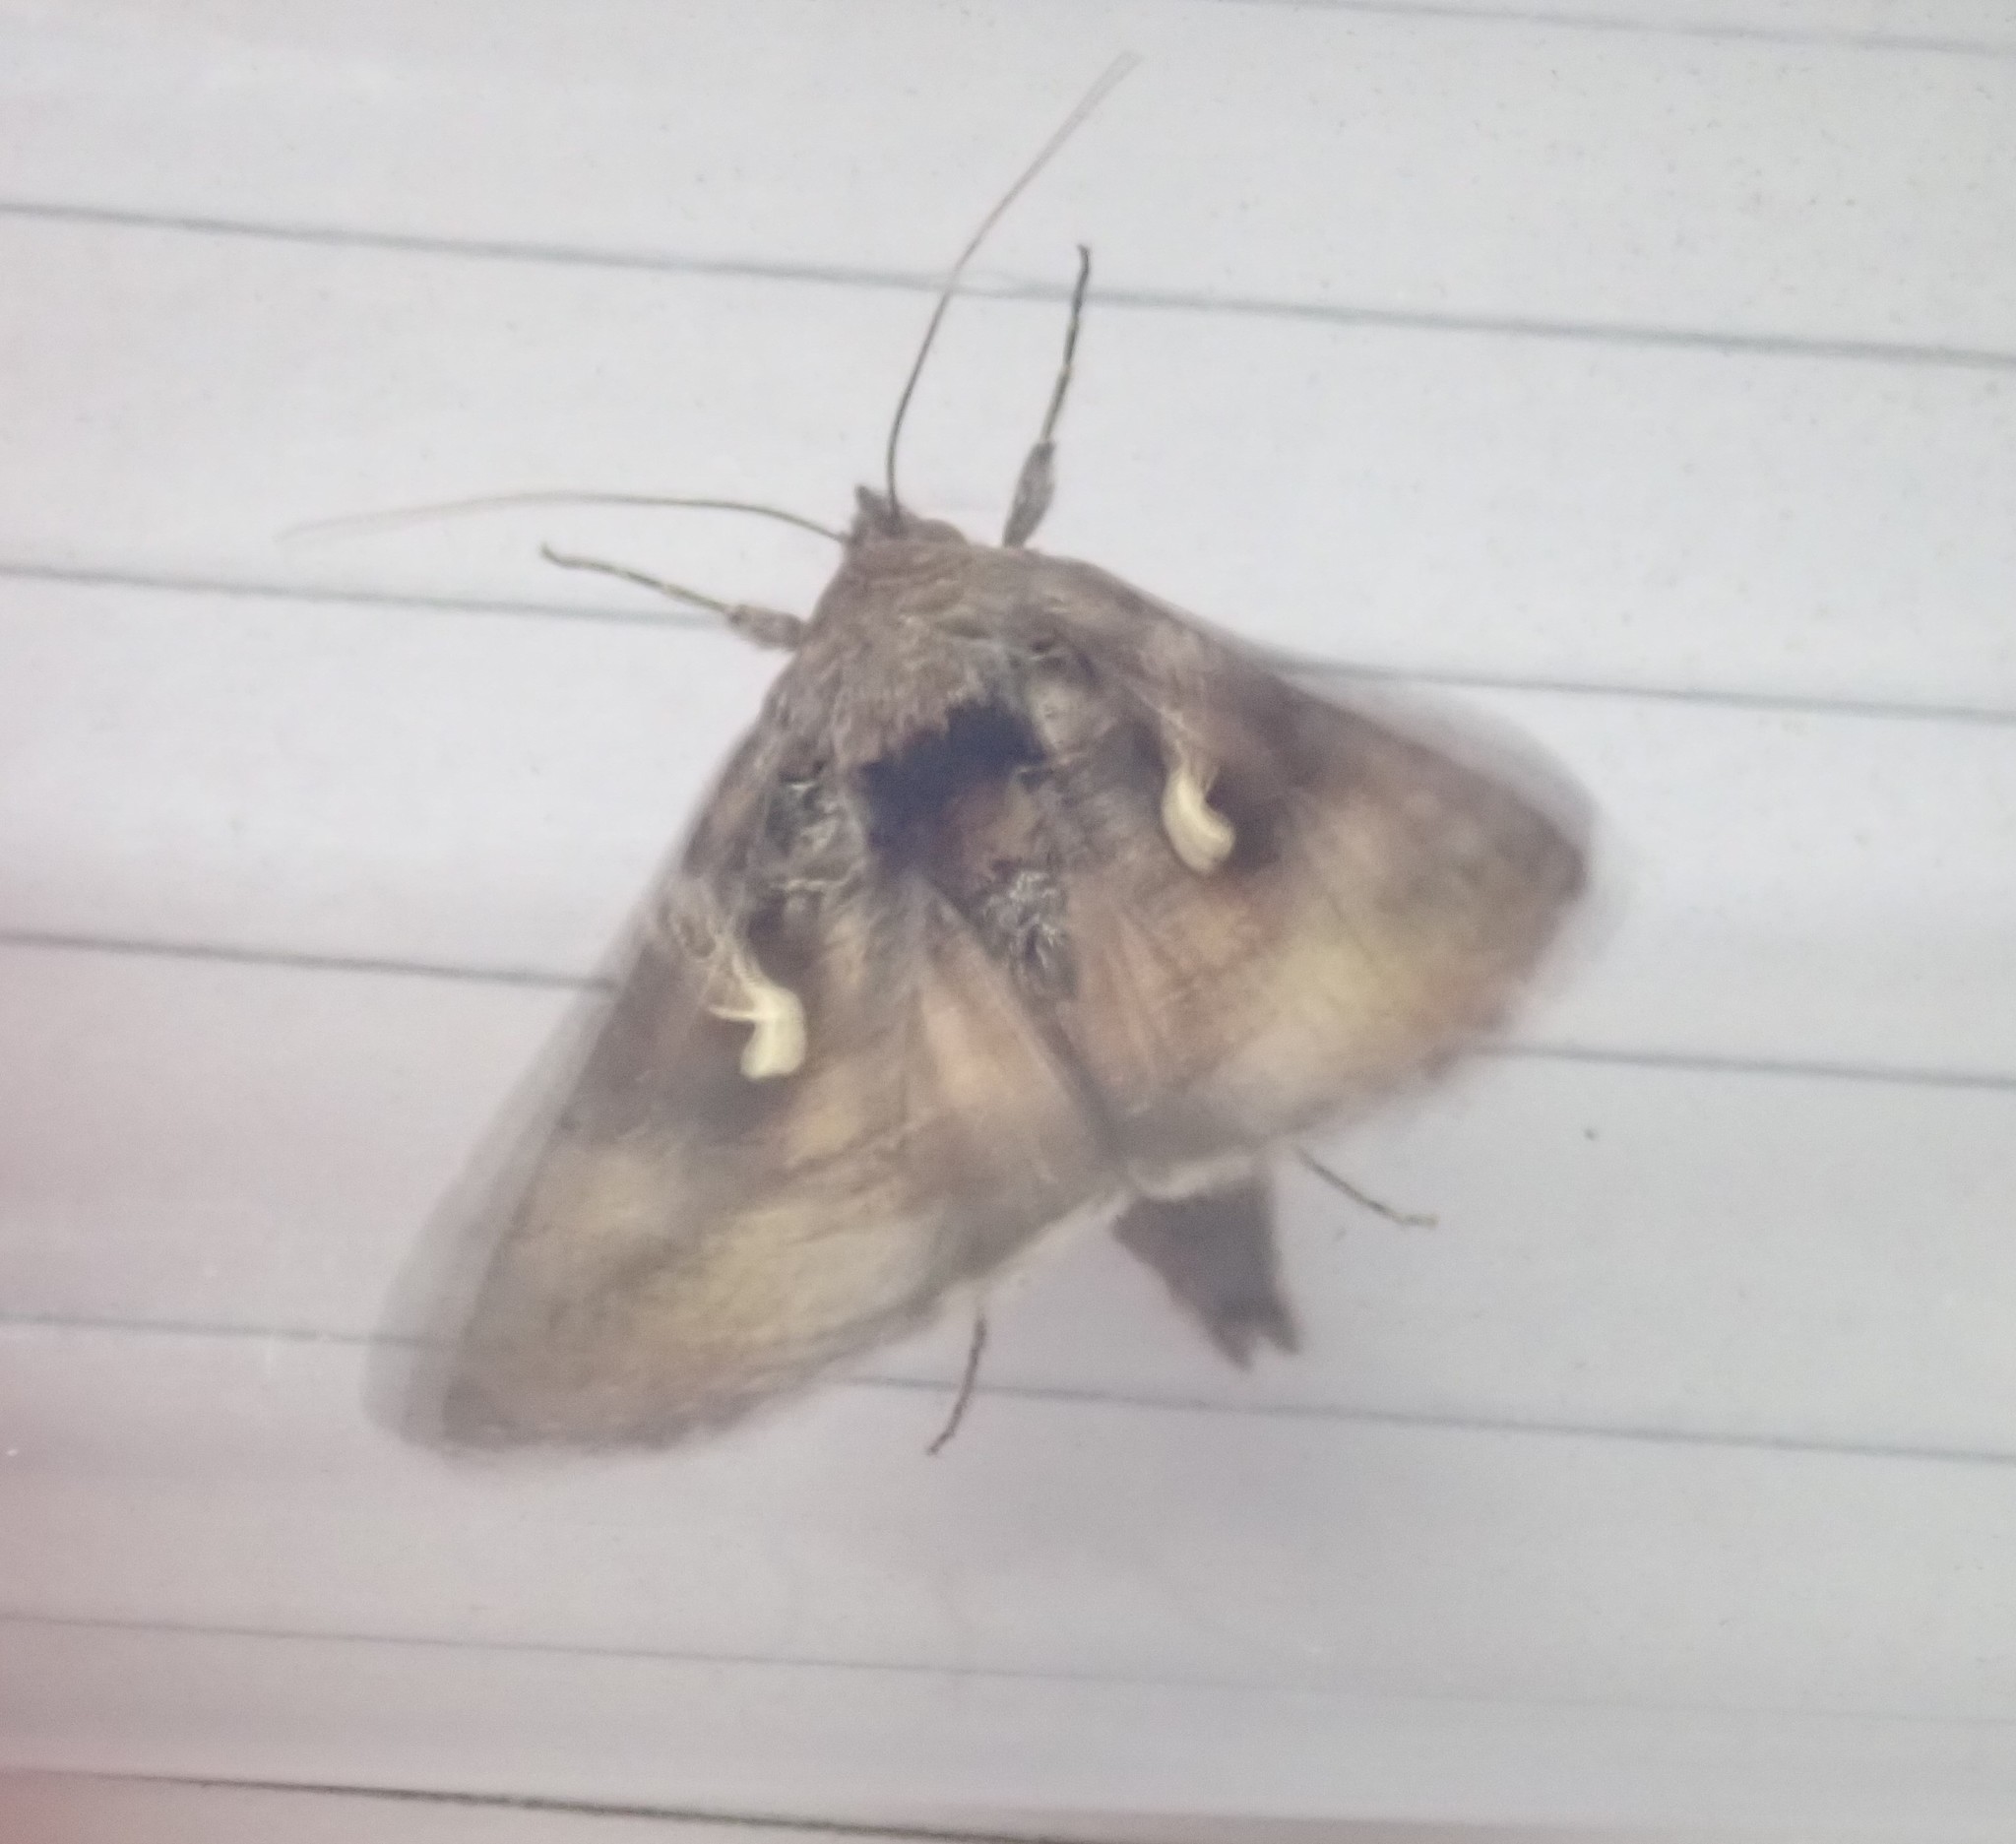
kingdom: Animalia
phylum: Arthropoda
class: Insecta
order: Lepidoptera
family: Noctuidae
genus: Autographa
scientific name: Autographa gamma
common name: Silver y
